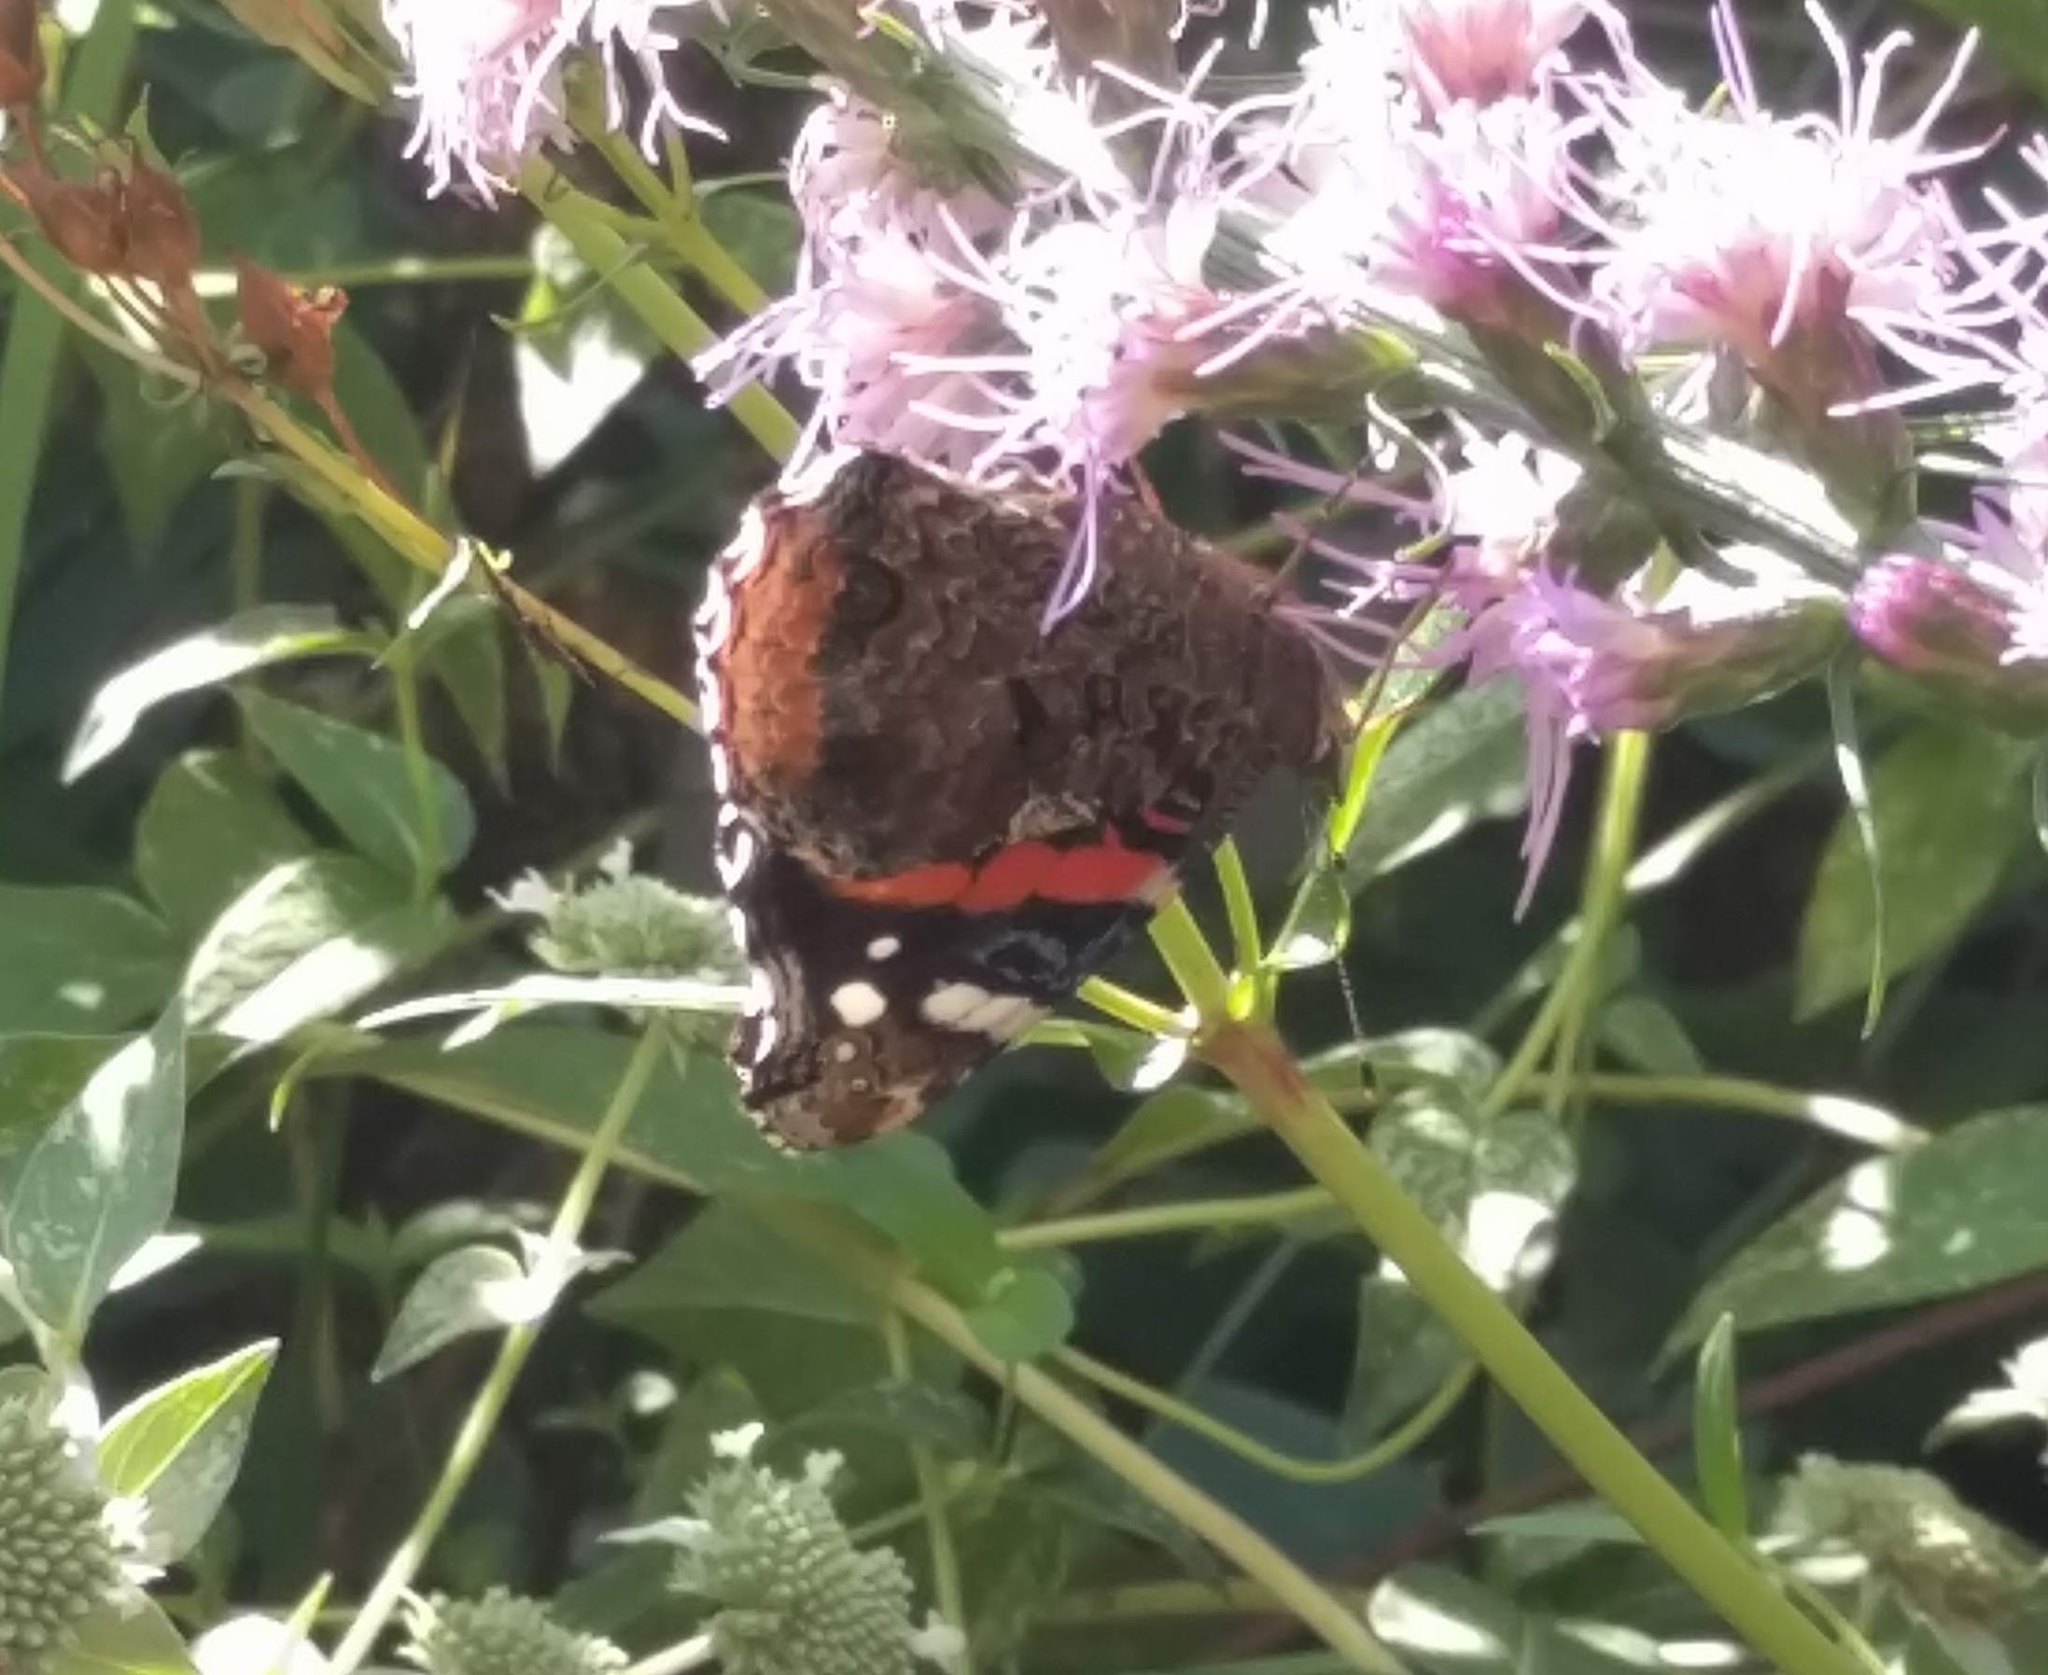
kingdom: Animalia
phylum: Arthropoda
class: Insecta
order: Lepidoptera
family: Nymphalidae
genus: Vanessa
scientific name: Vanessa atalanta
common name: Red admiral
